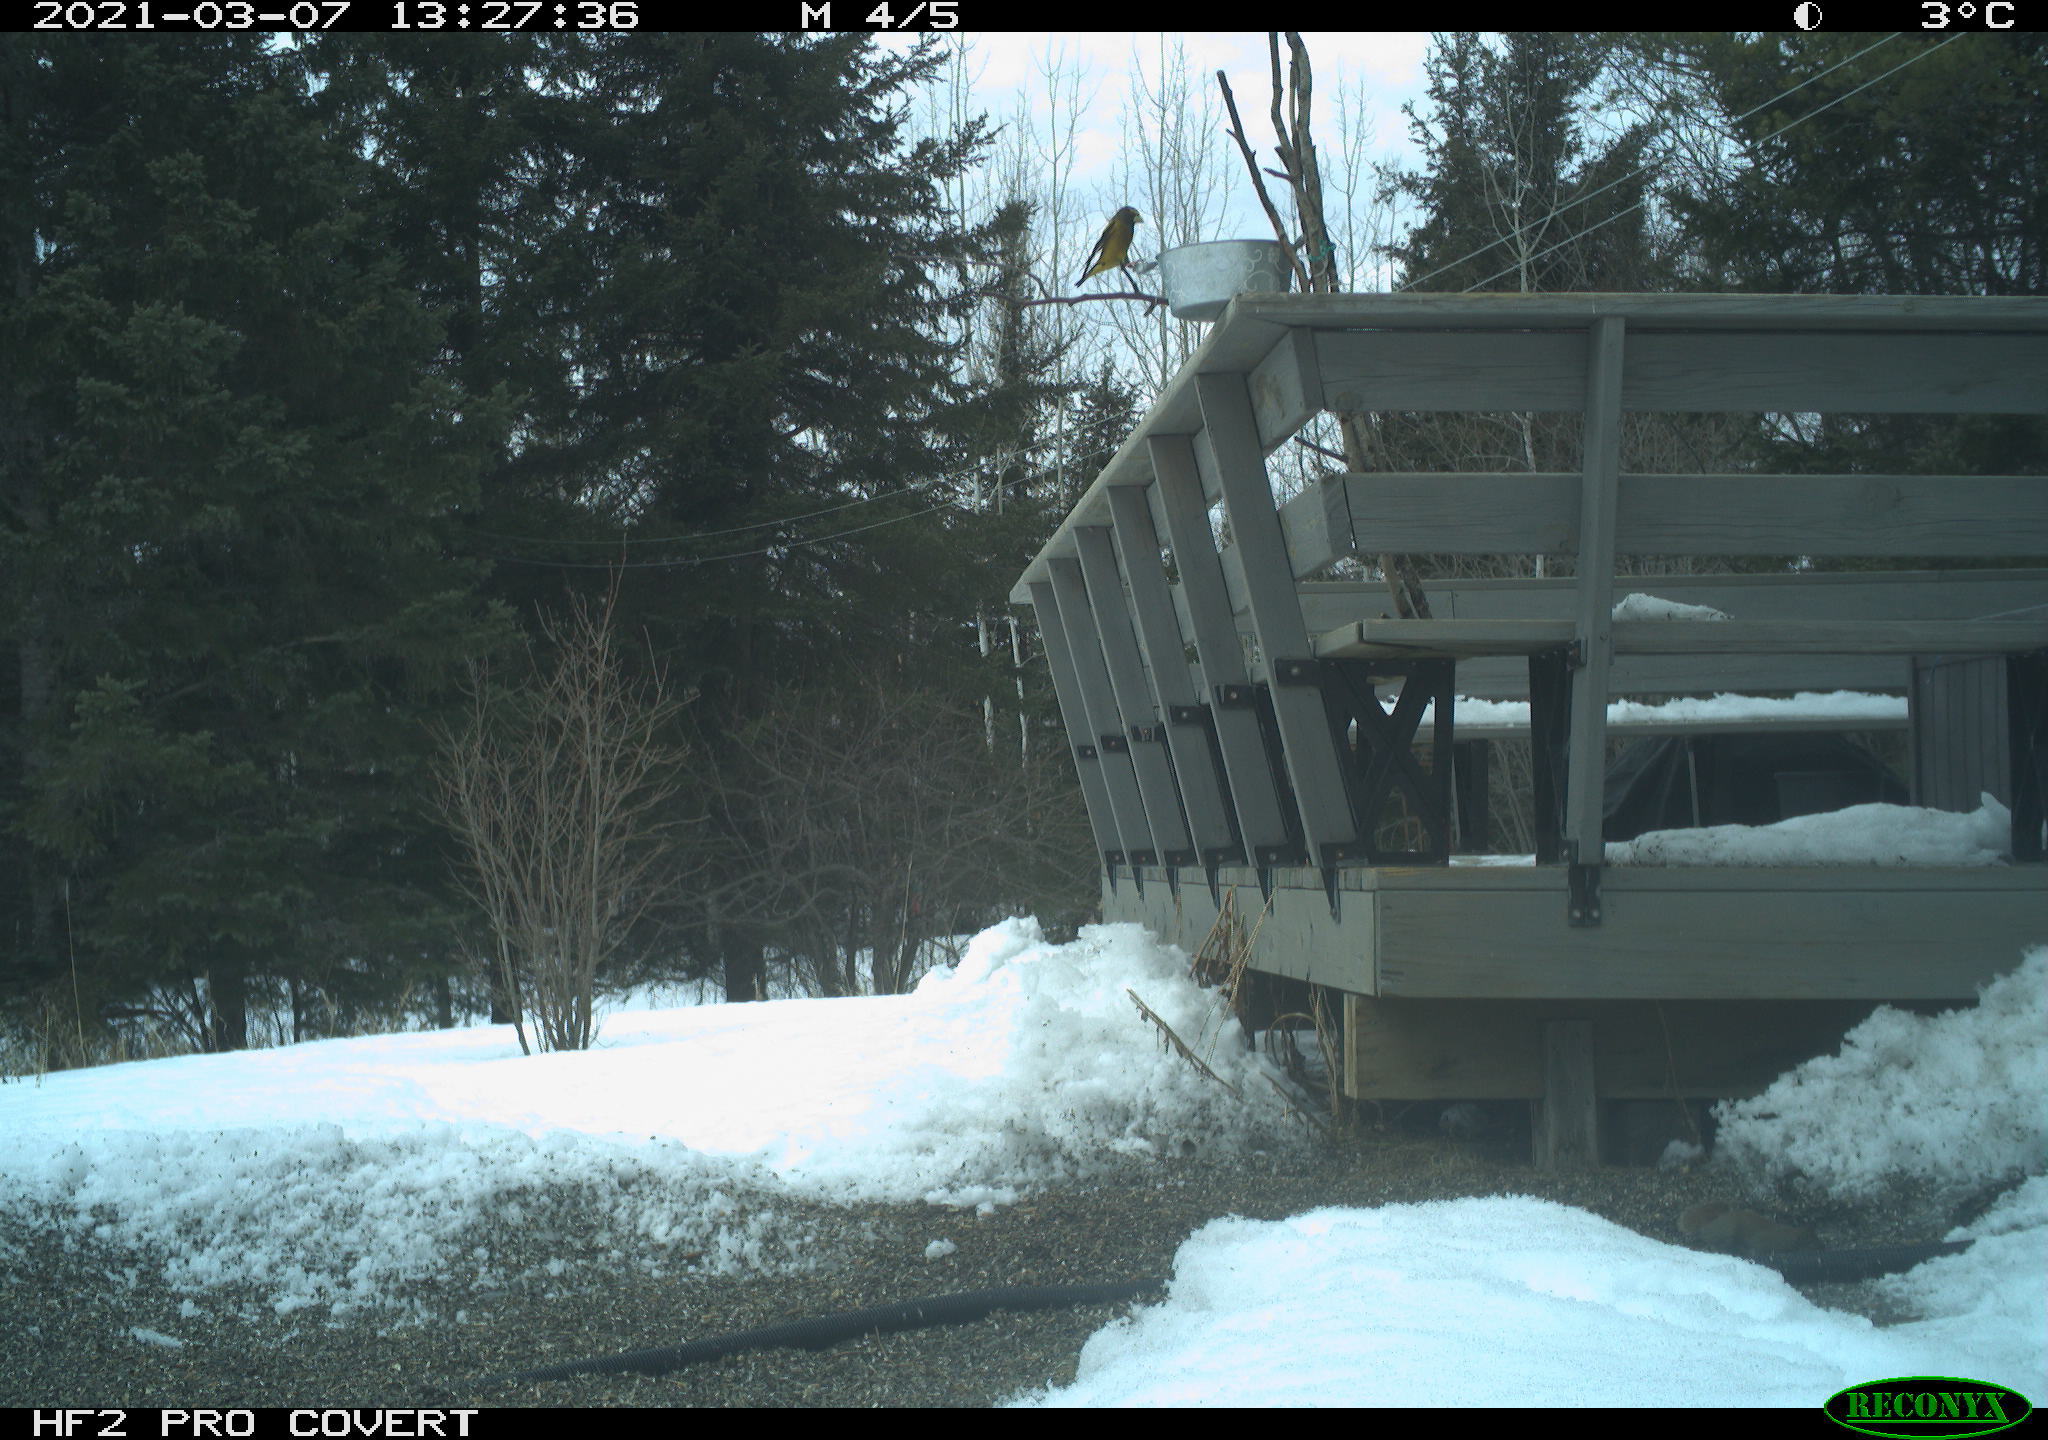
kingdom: Animalia
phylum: Chordata
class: Aves
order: Passeriformes
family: Fringillidae
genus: Hesperiphona
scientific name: Hesperiphona vespertina
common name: Evening grosbeak
